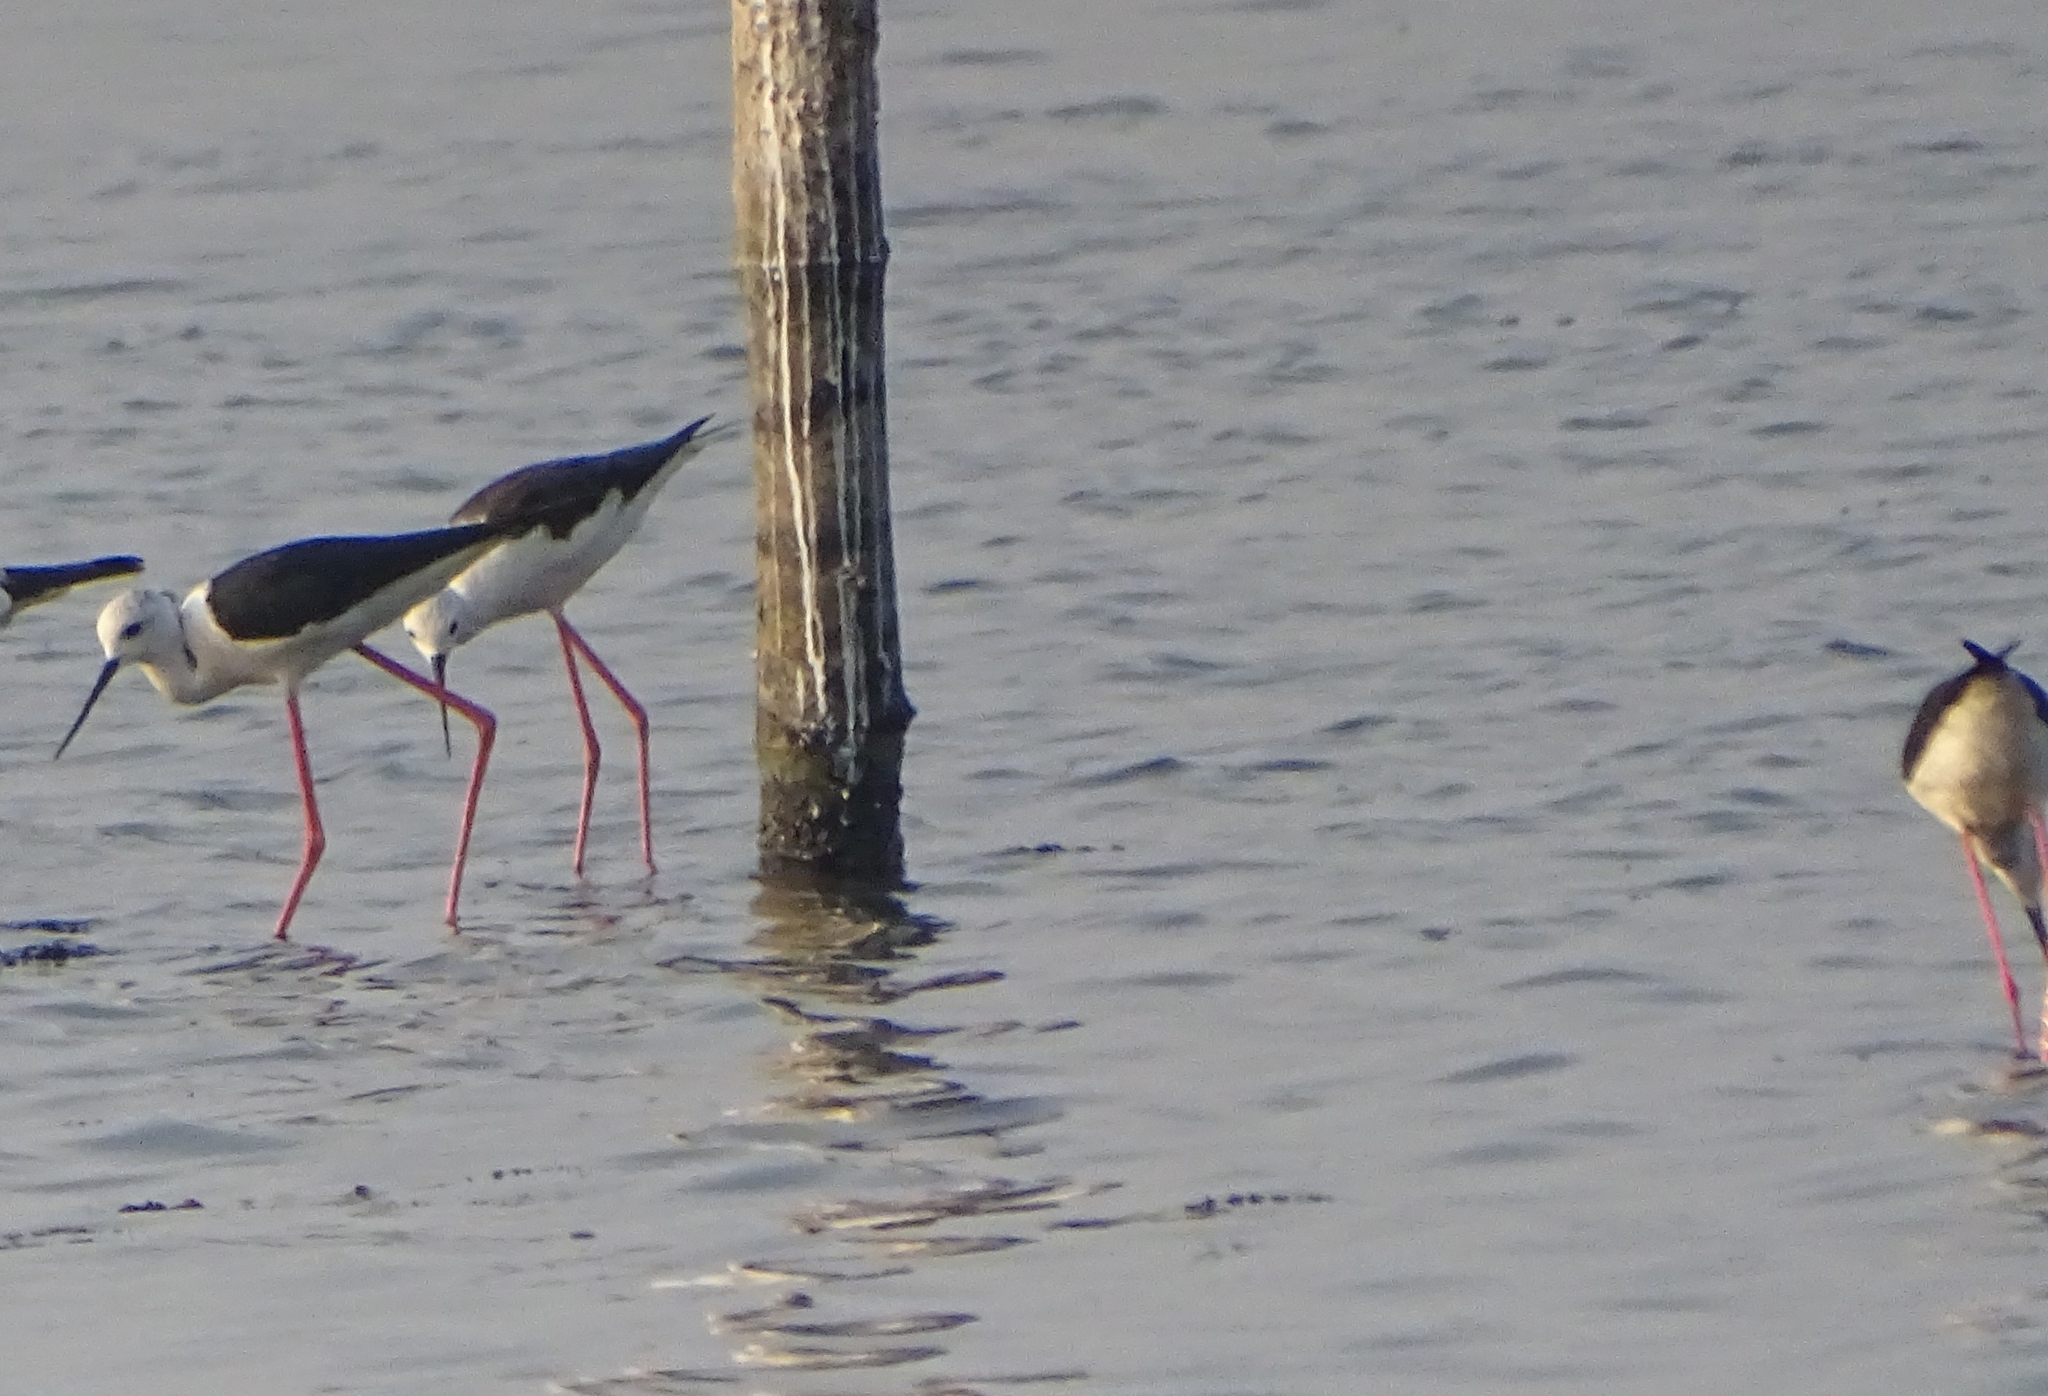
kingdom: Animalia
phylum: Chordata
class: Aves
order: Charadriiformes
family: Recurvirostridae
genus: Himantopus
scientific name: Himantopus himantopus
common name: Black-winged stilt
